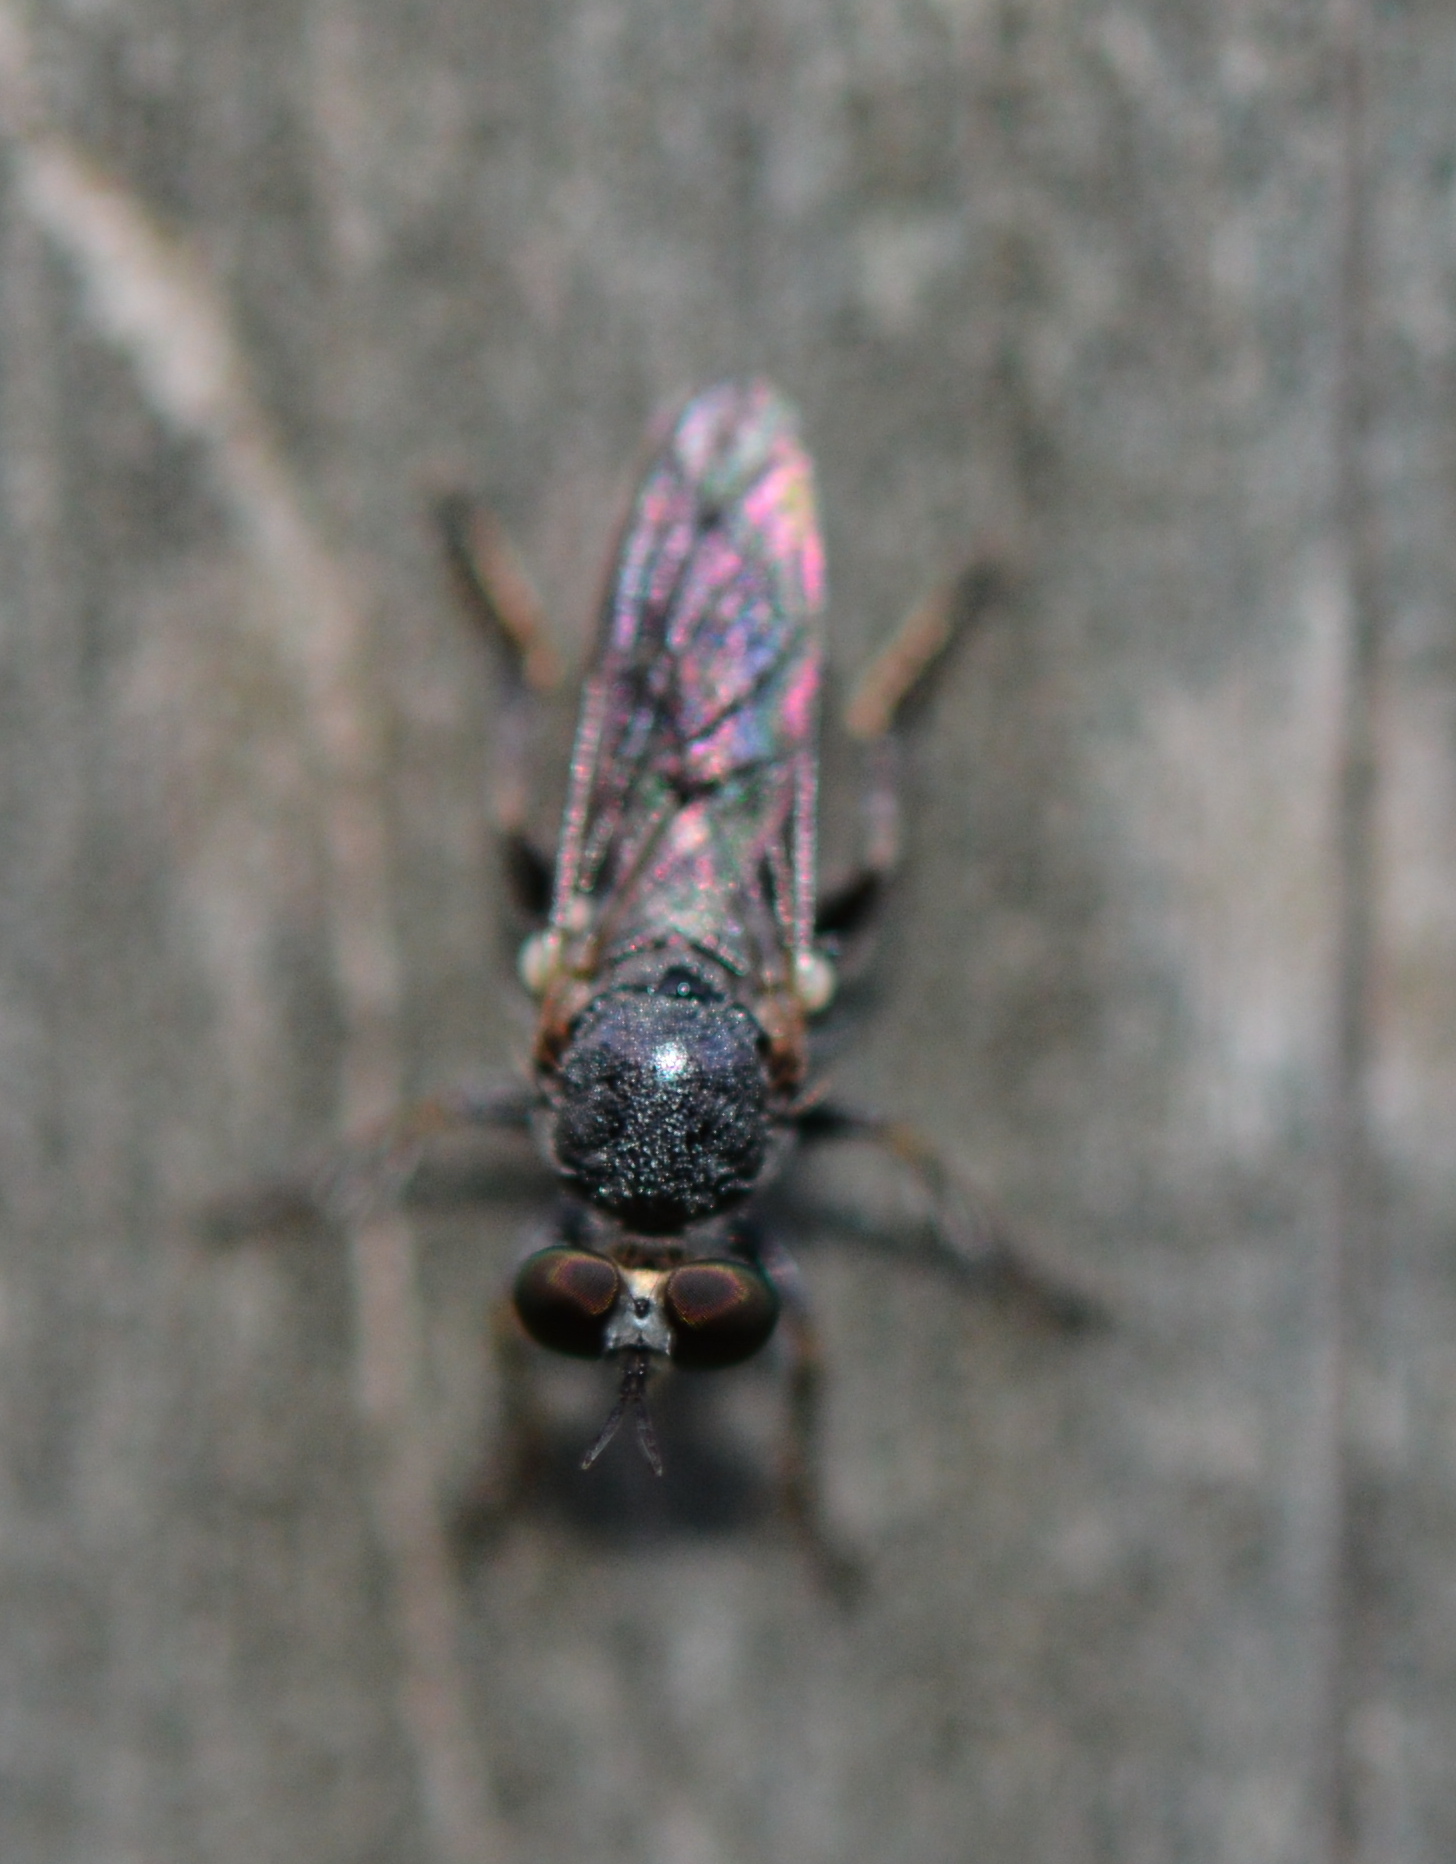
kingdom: Animalia
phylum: Arthropoda
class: Insecta
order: Diptera
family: Asilidae
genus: Atomosia
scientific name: Atomosia
